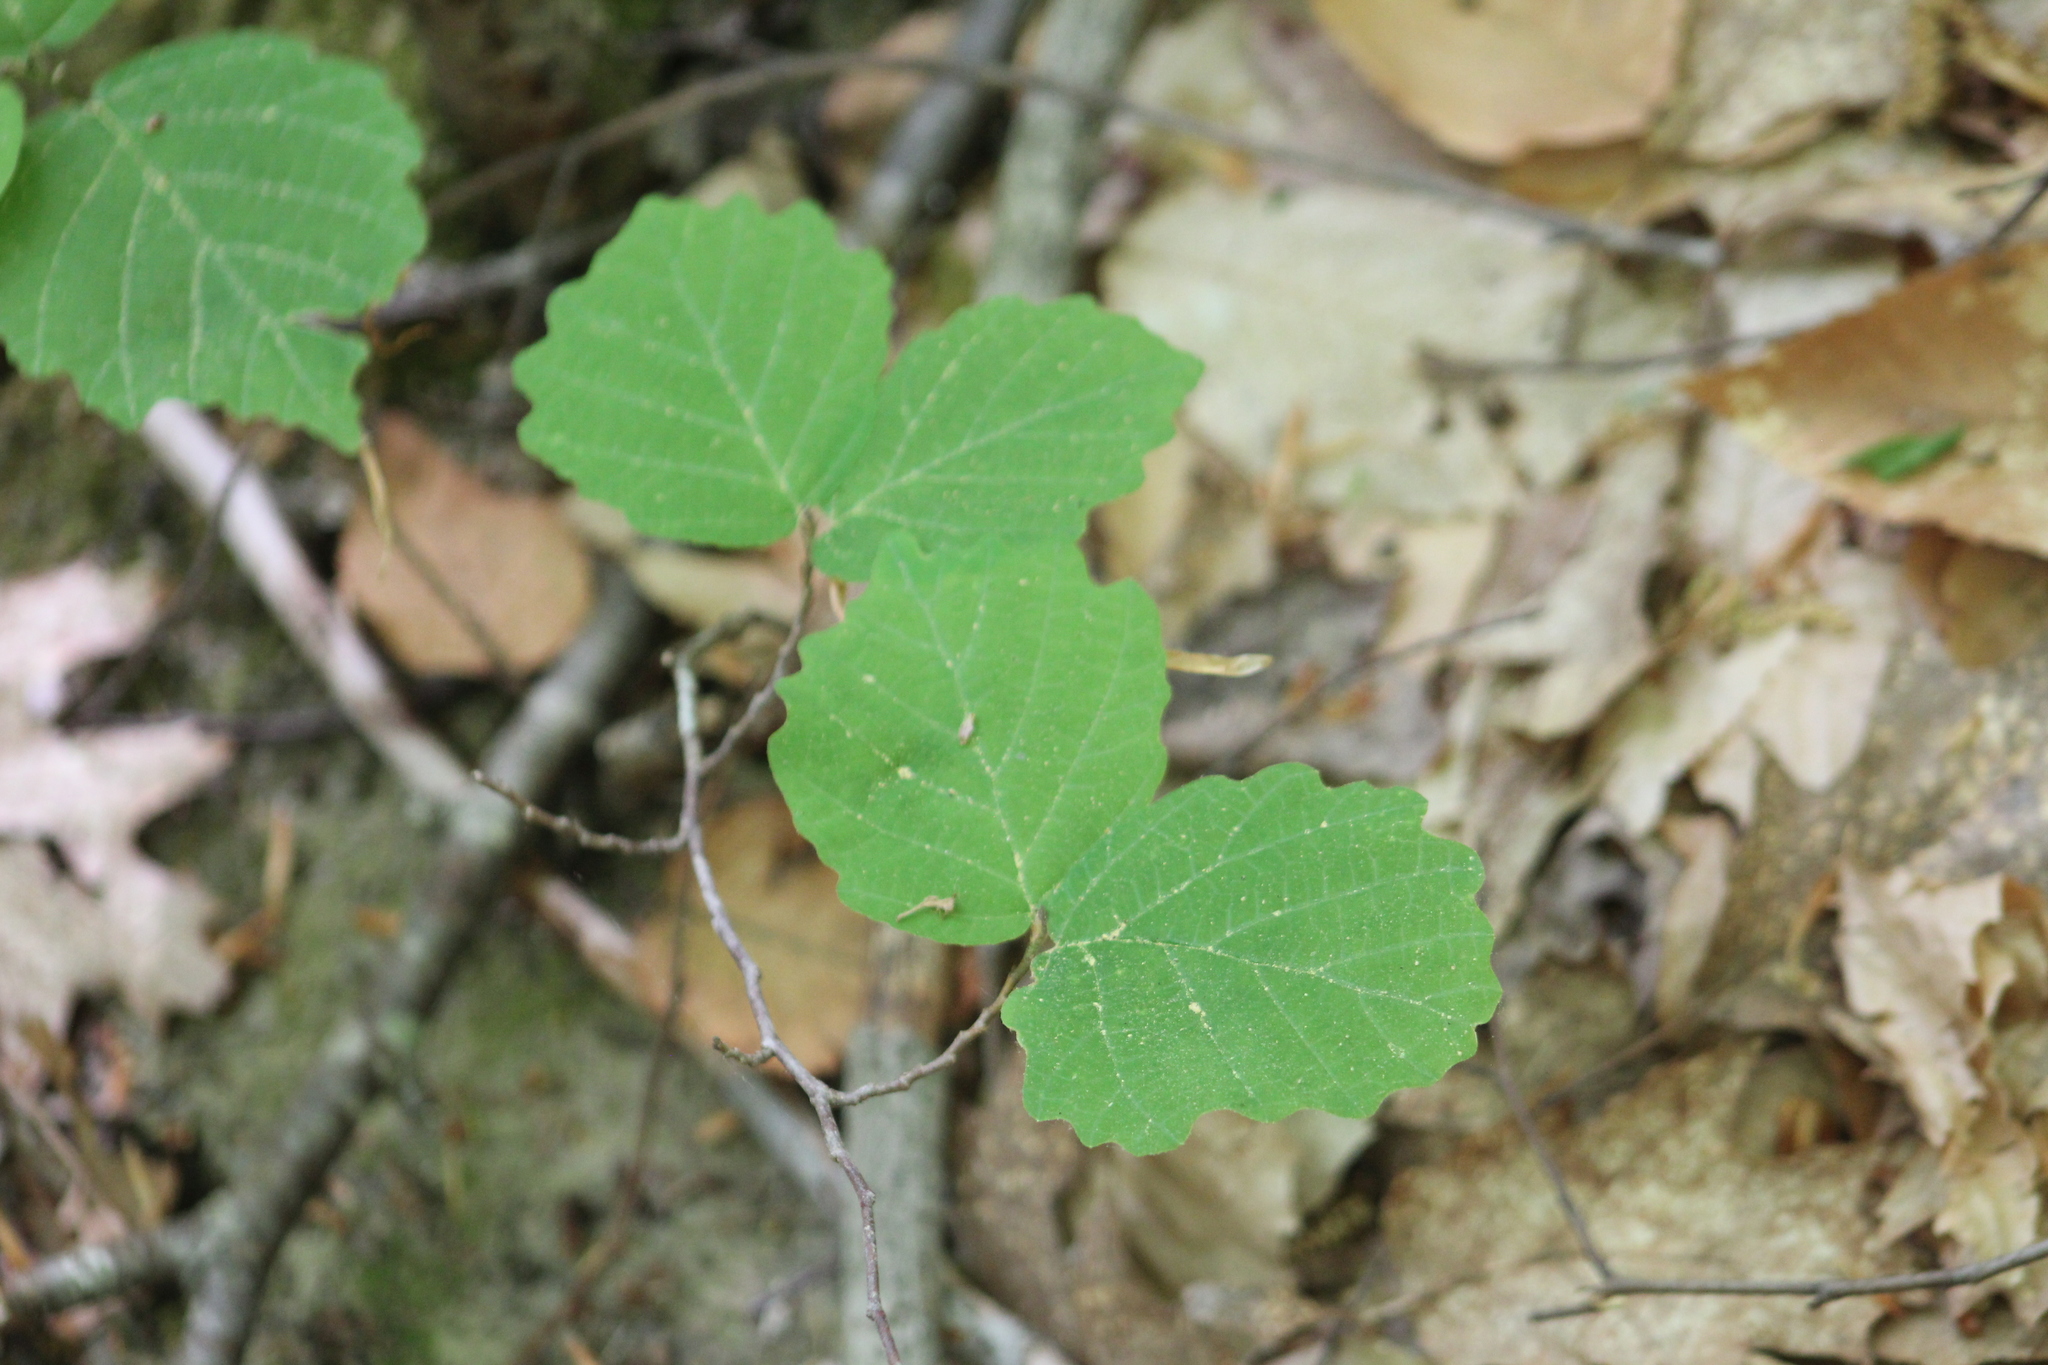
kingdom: Plantae
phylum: Tracheophyta
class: Magnoliopsida
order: Saxifragales
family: Hamamelidaceae
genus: Hamamelis
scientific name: Hamamelis virginiana
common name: Witch-hazel
